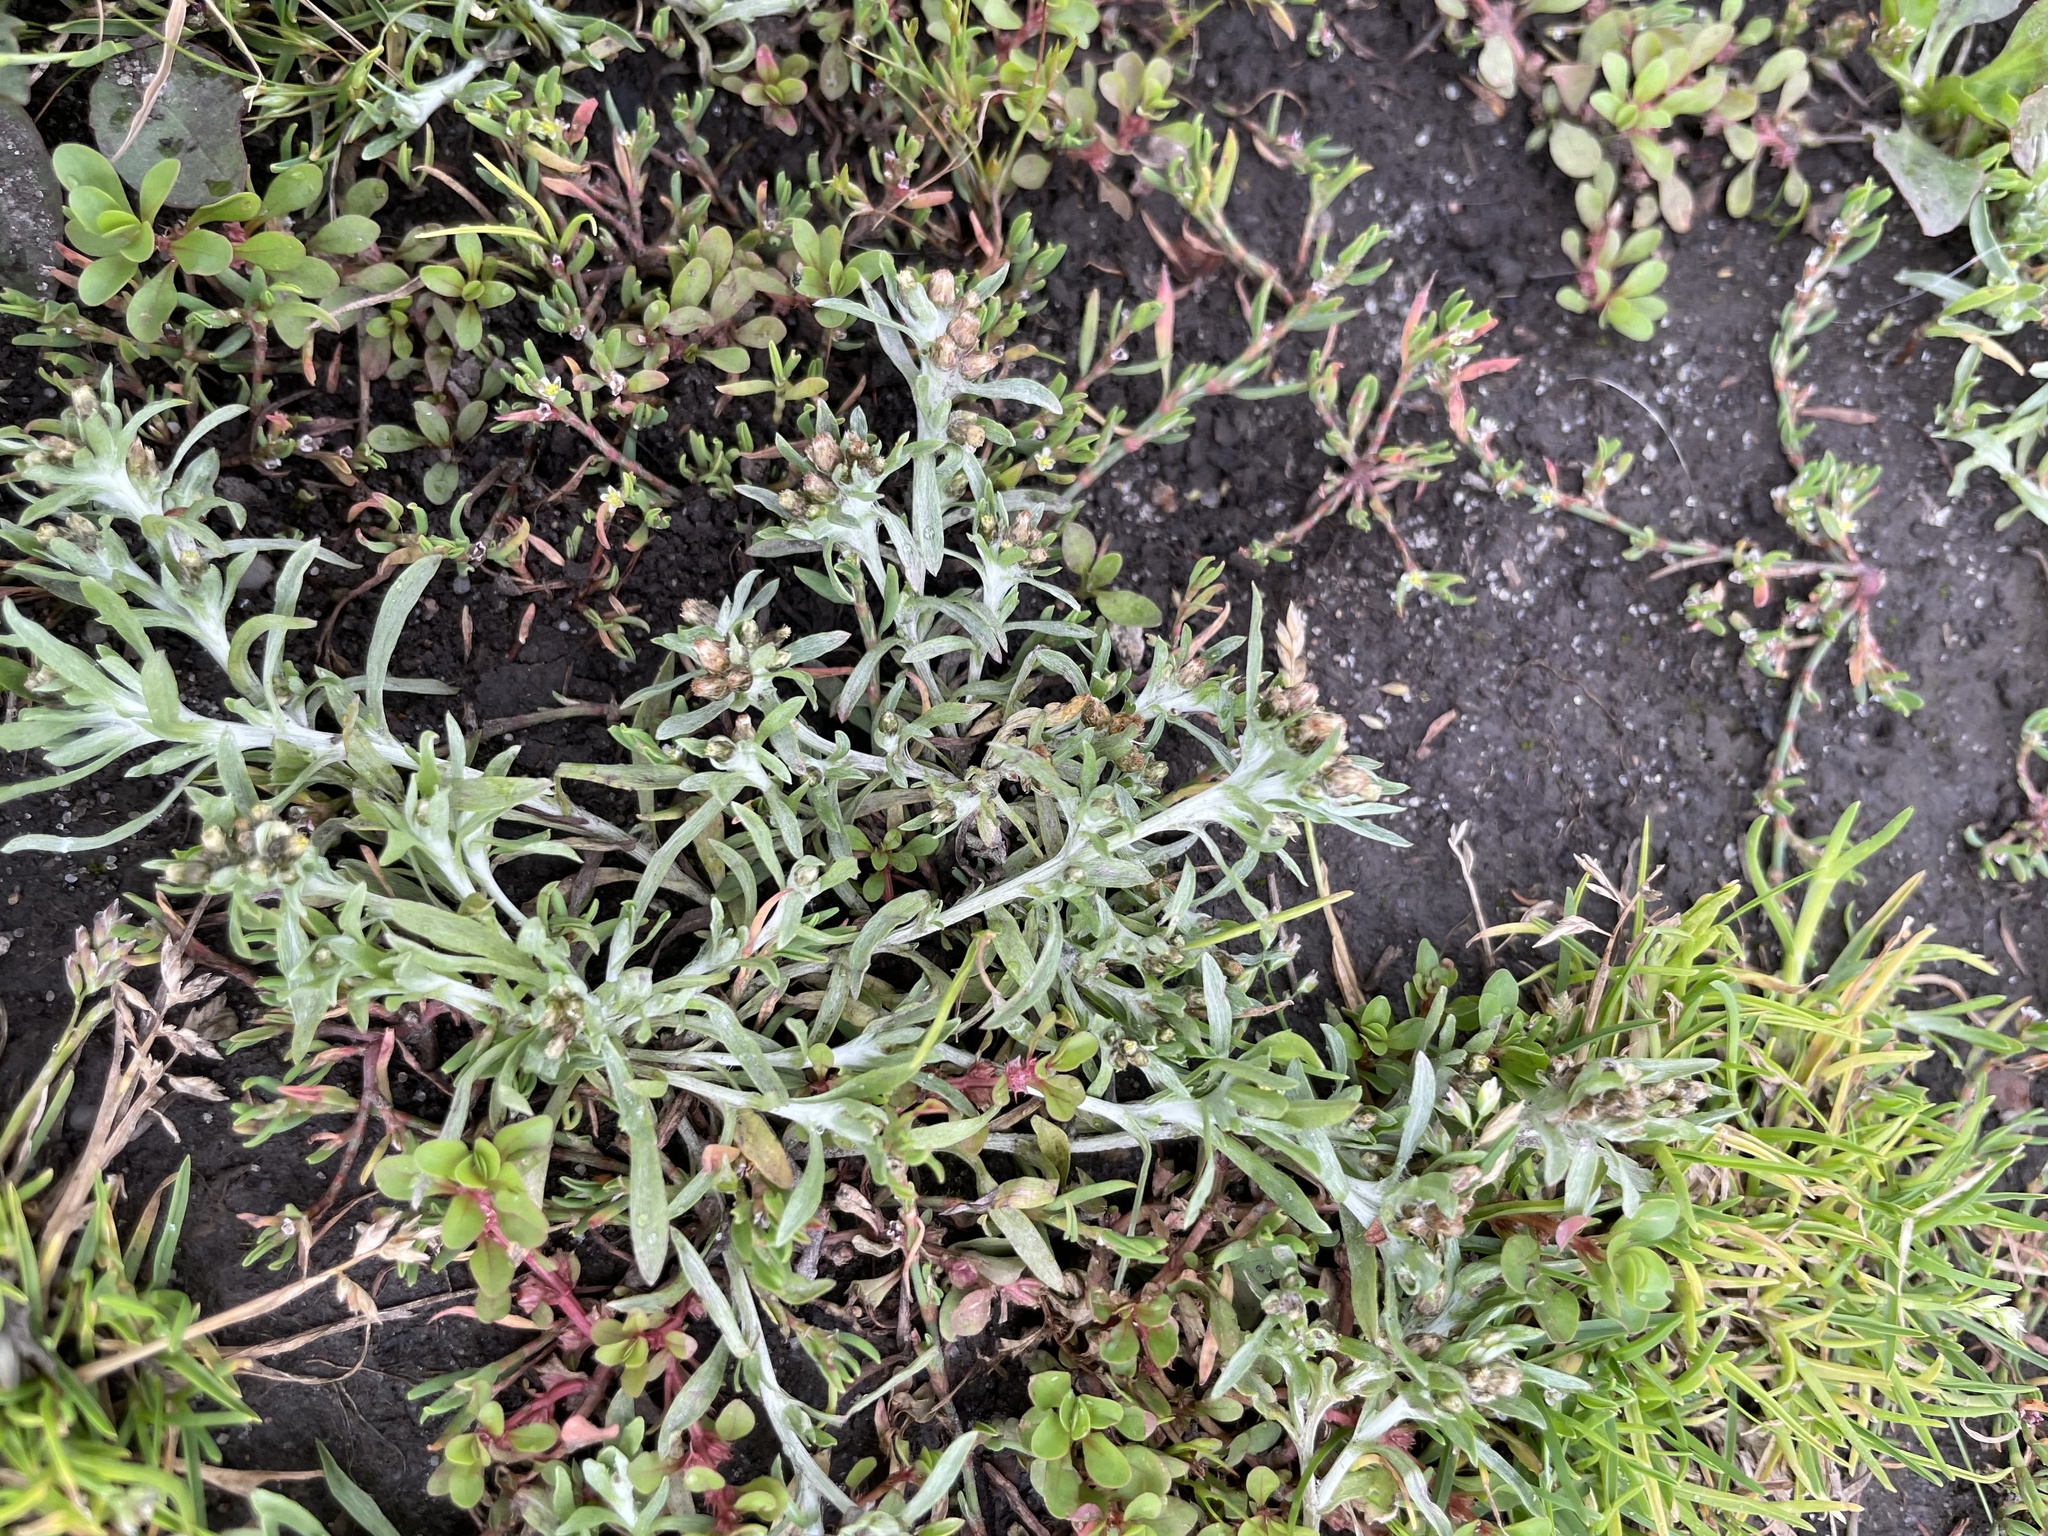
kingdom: Plantae
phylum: Tracheophyta
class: Magnoliopsida
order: Asterales
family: Asteraceae
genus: Gnaphalium
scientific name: Gnaphalium uliginosum
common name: Marsh cudweed
